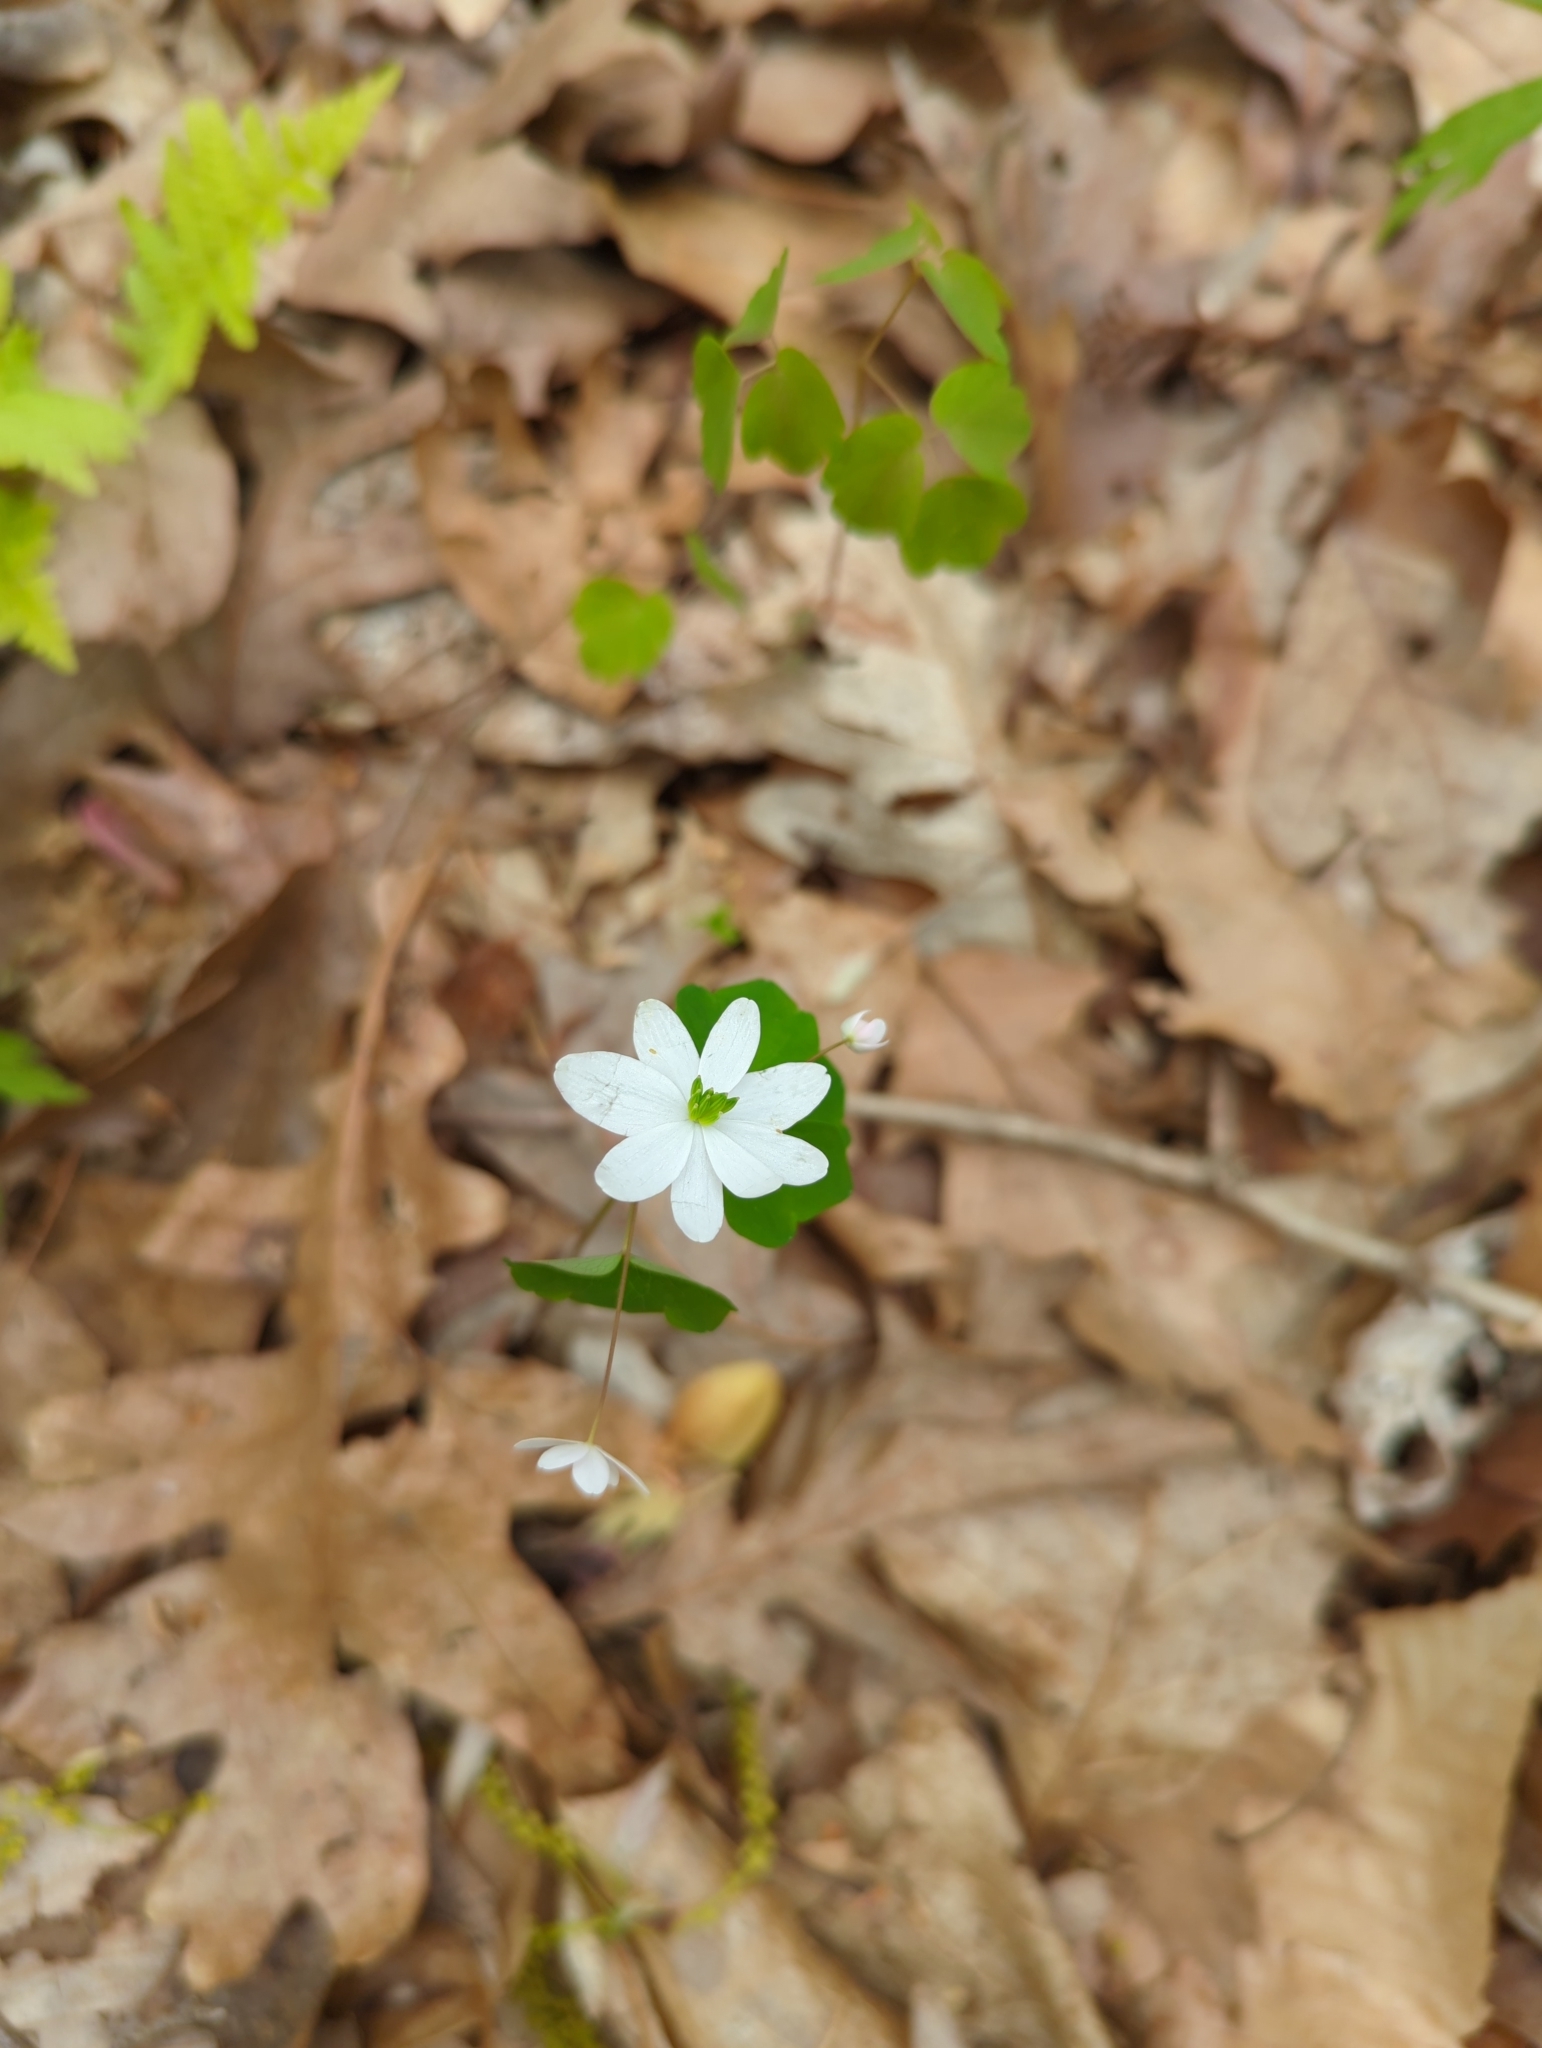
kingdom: Plantae
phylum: Tracheophyta
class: Magnoliopsida
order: Ranunculales
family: Ranunculaceae
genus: Thalictrum
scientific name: Thalictrum thalictroides
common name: Rue-anemone
